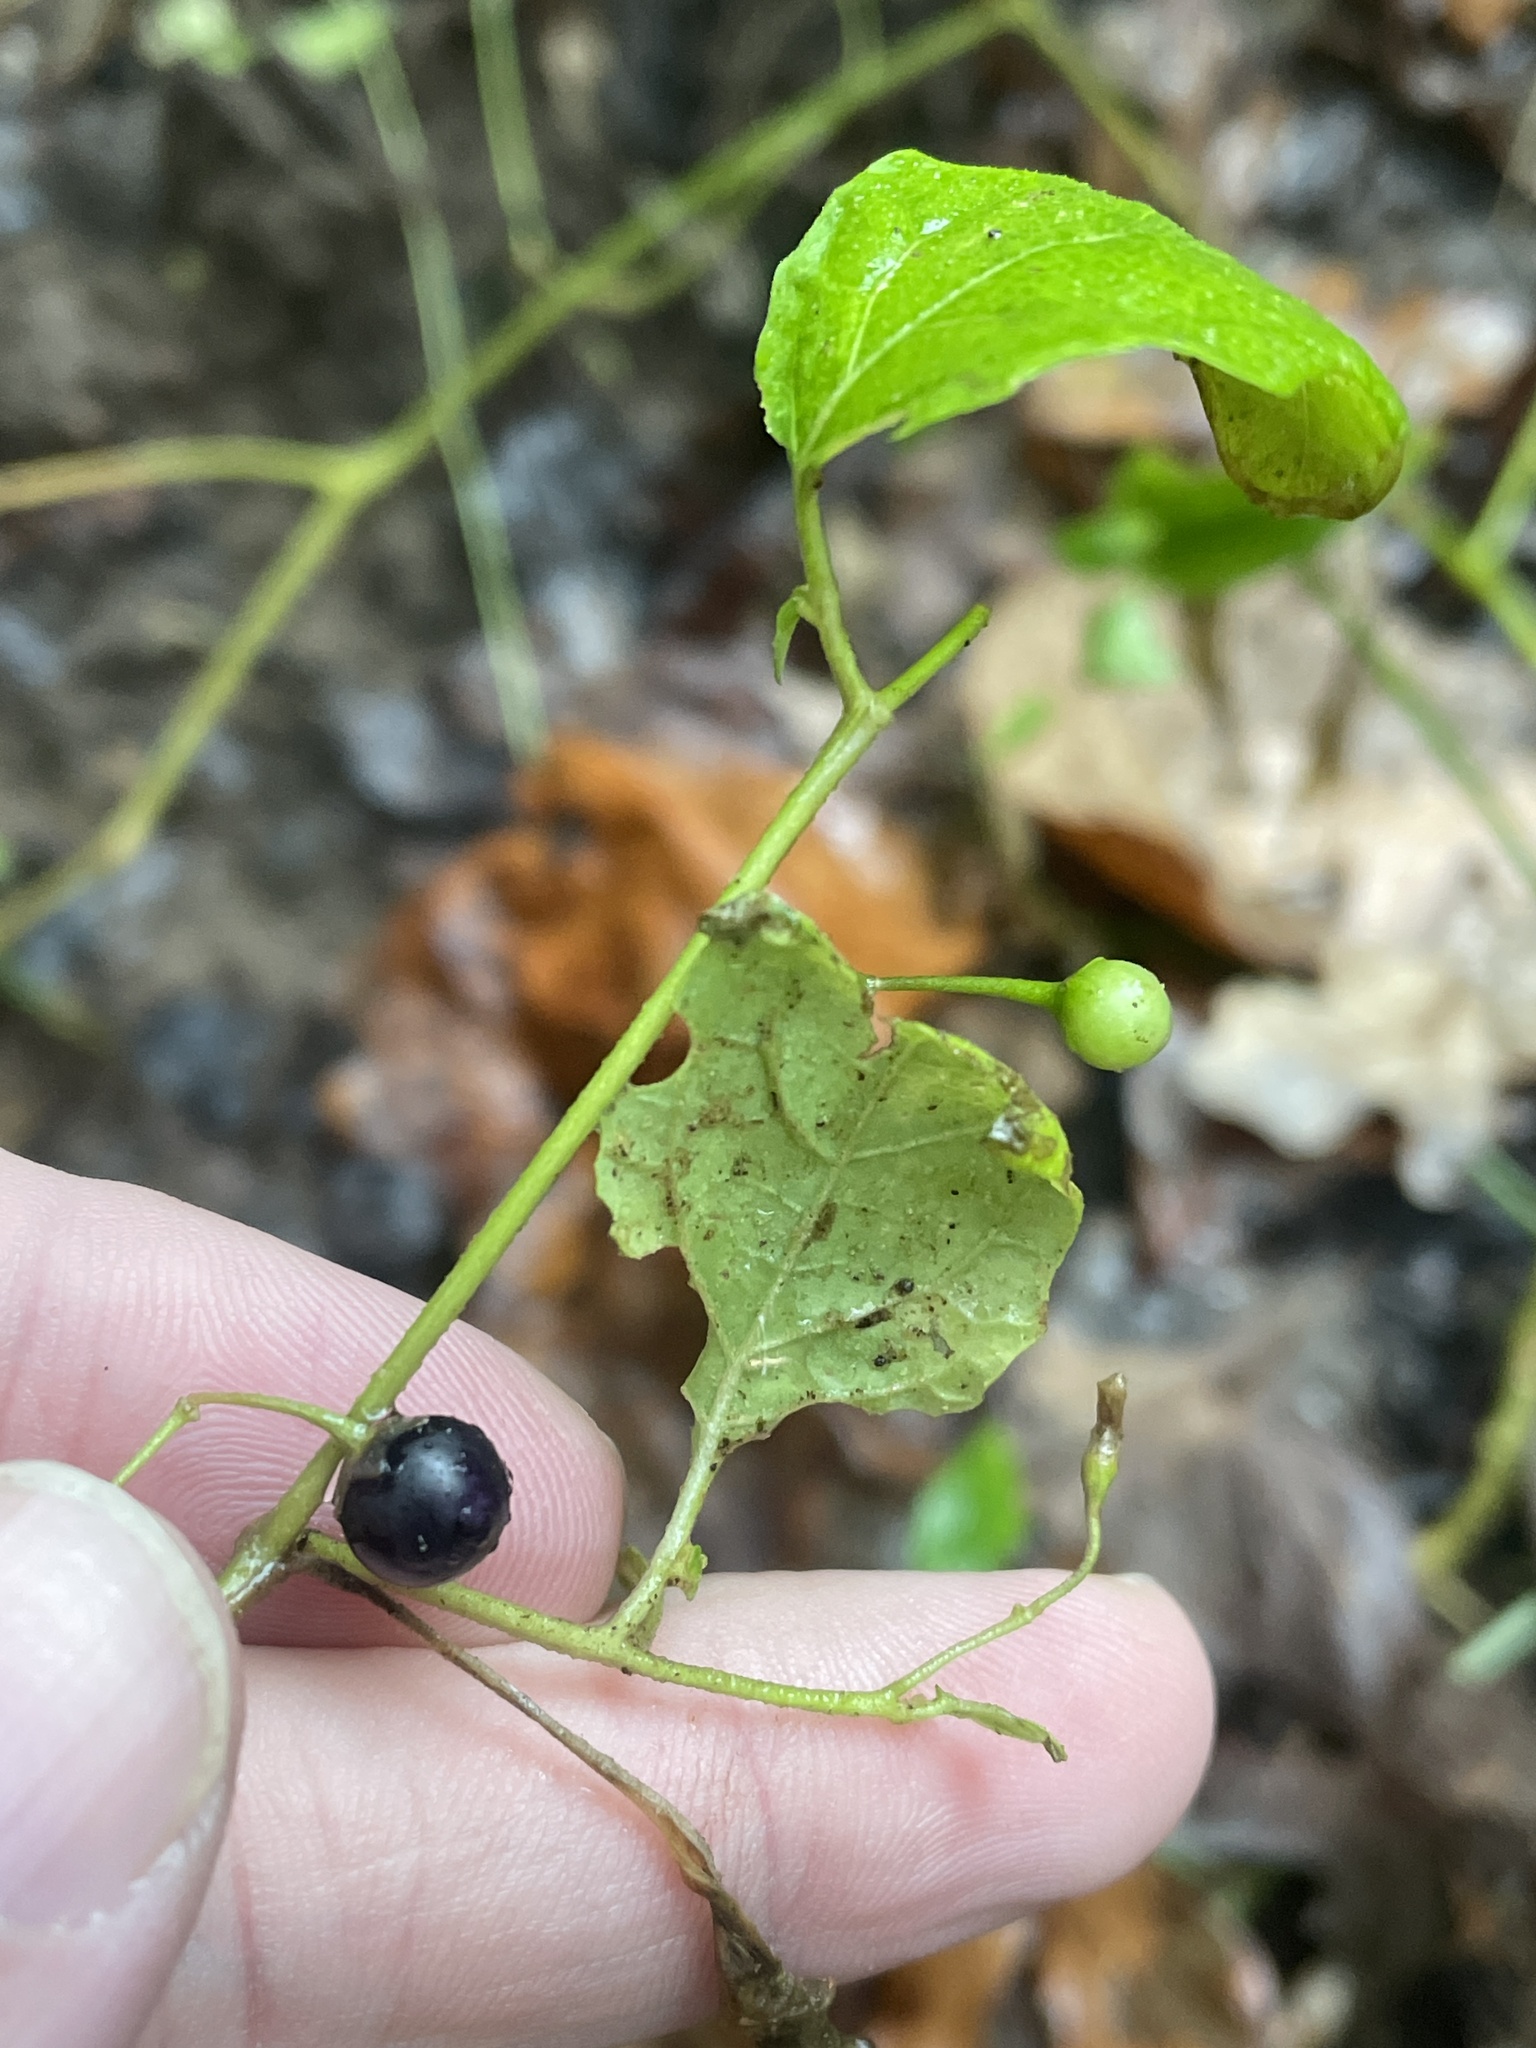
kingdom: Plantae
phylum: Tracheophyta
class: Magnoliopsida
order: Solanales
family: Solanaceae
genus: Solanum
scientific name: Solanum emulans
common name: Eastern black nightshade
